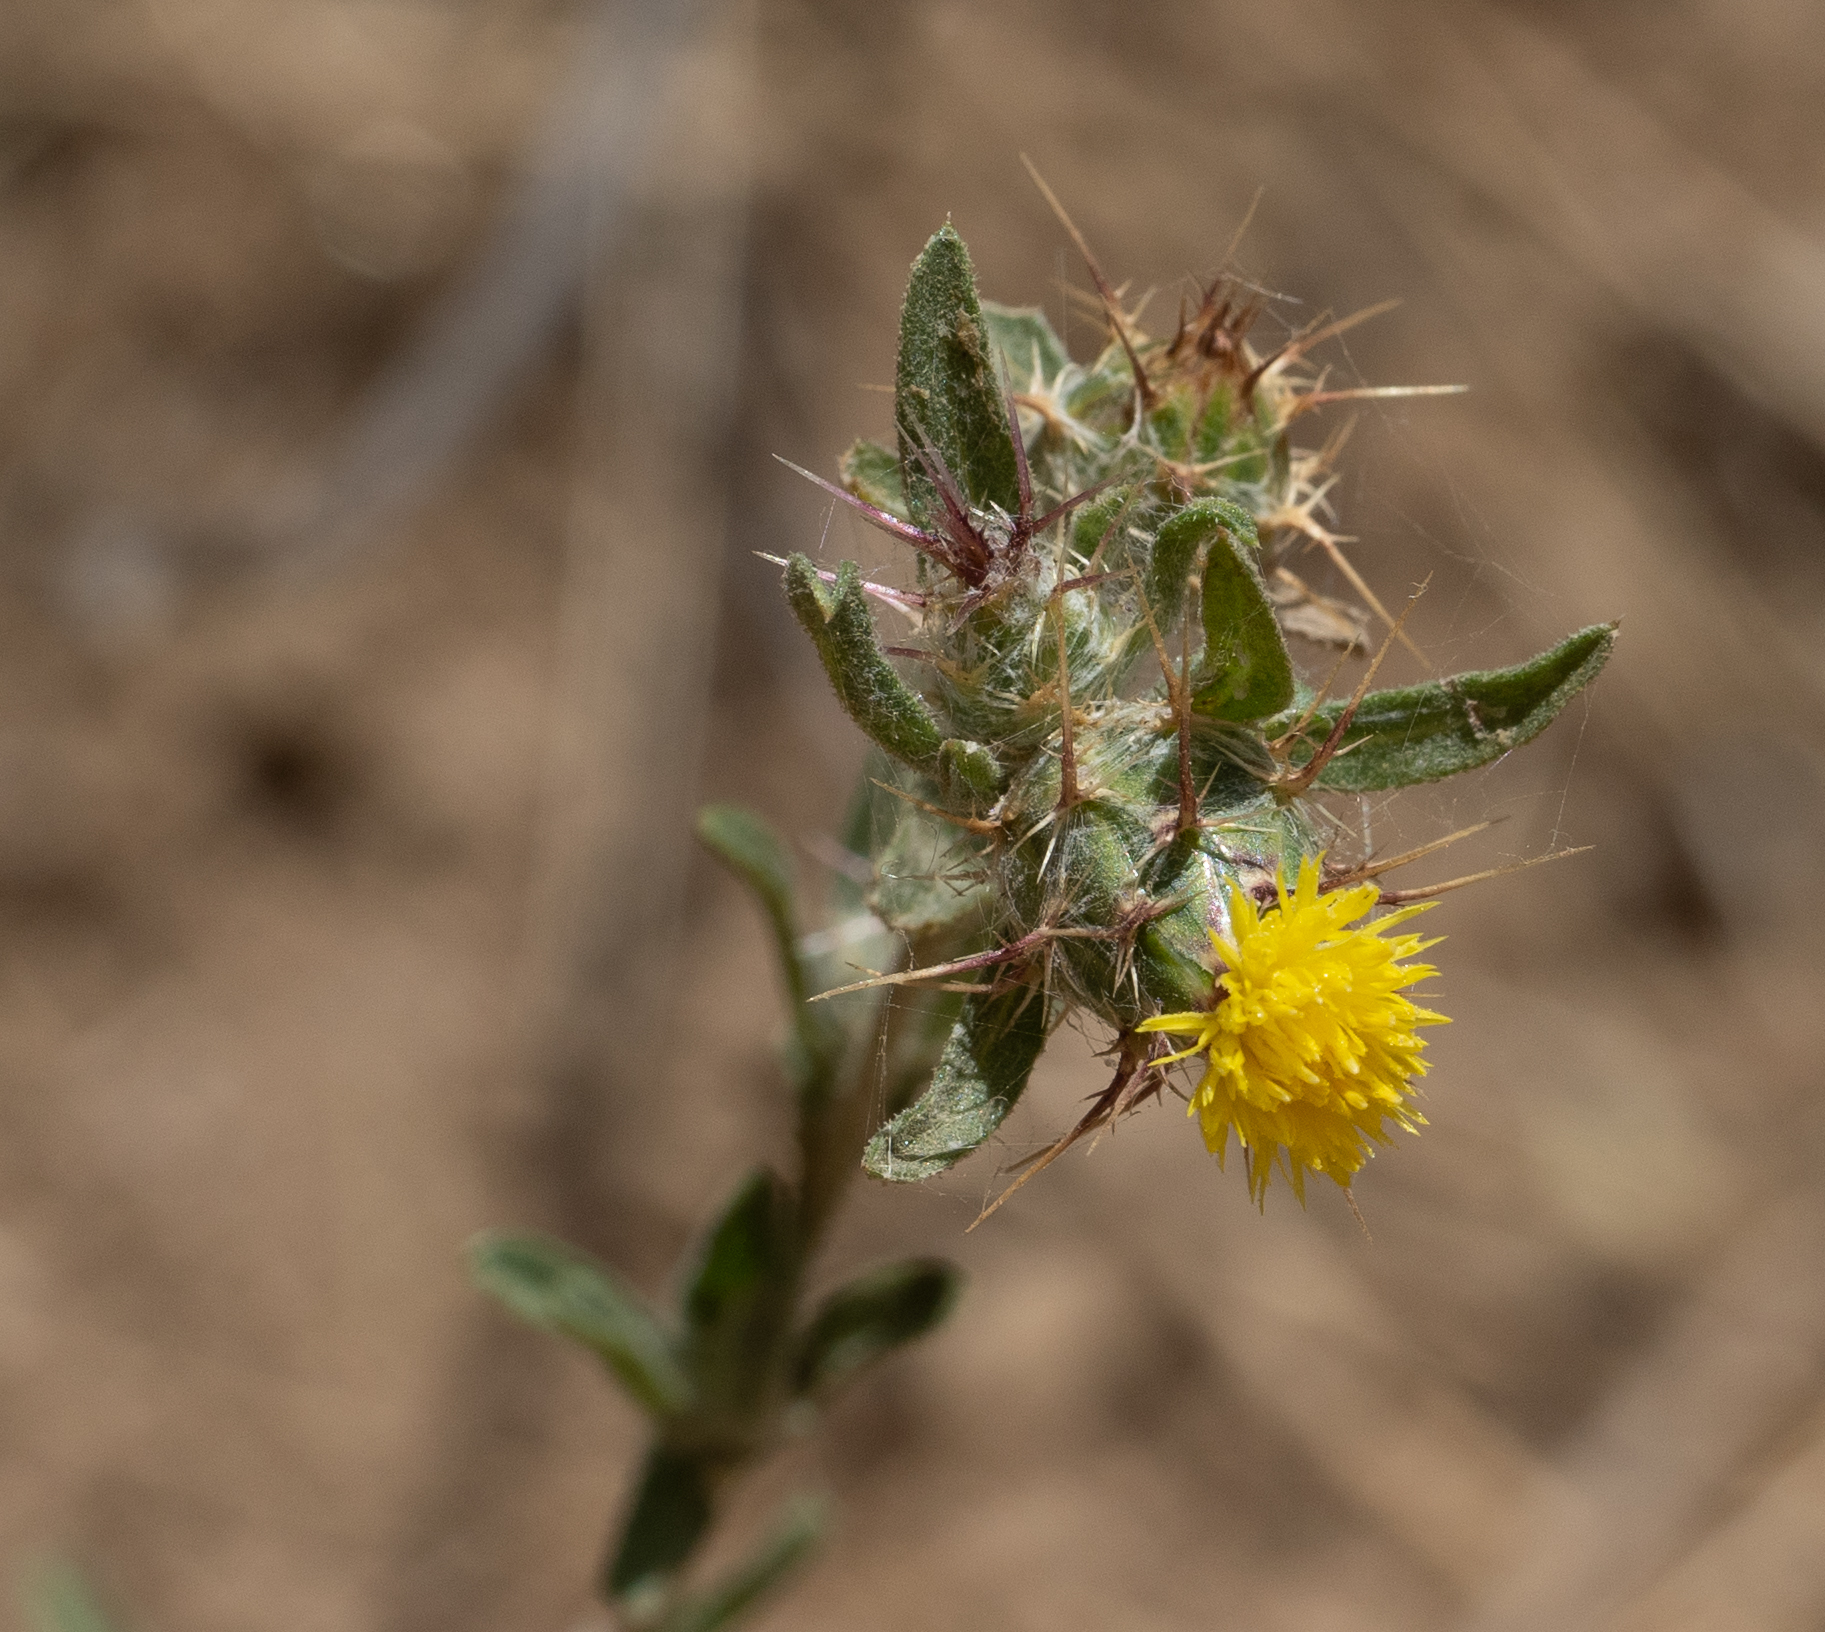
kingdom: Plantae
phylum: Tracheophyta
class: Magnoliopsida
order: Asterales
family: Asteraceae
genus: Centaurea
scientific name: Centaurea melitensis
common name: Maltese star-thistle
